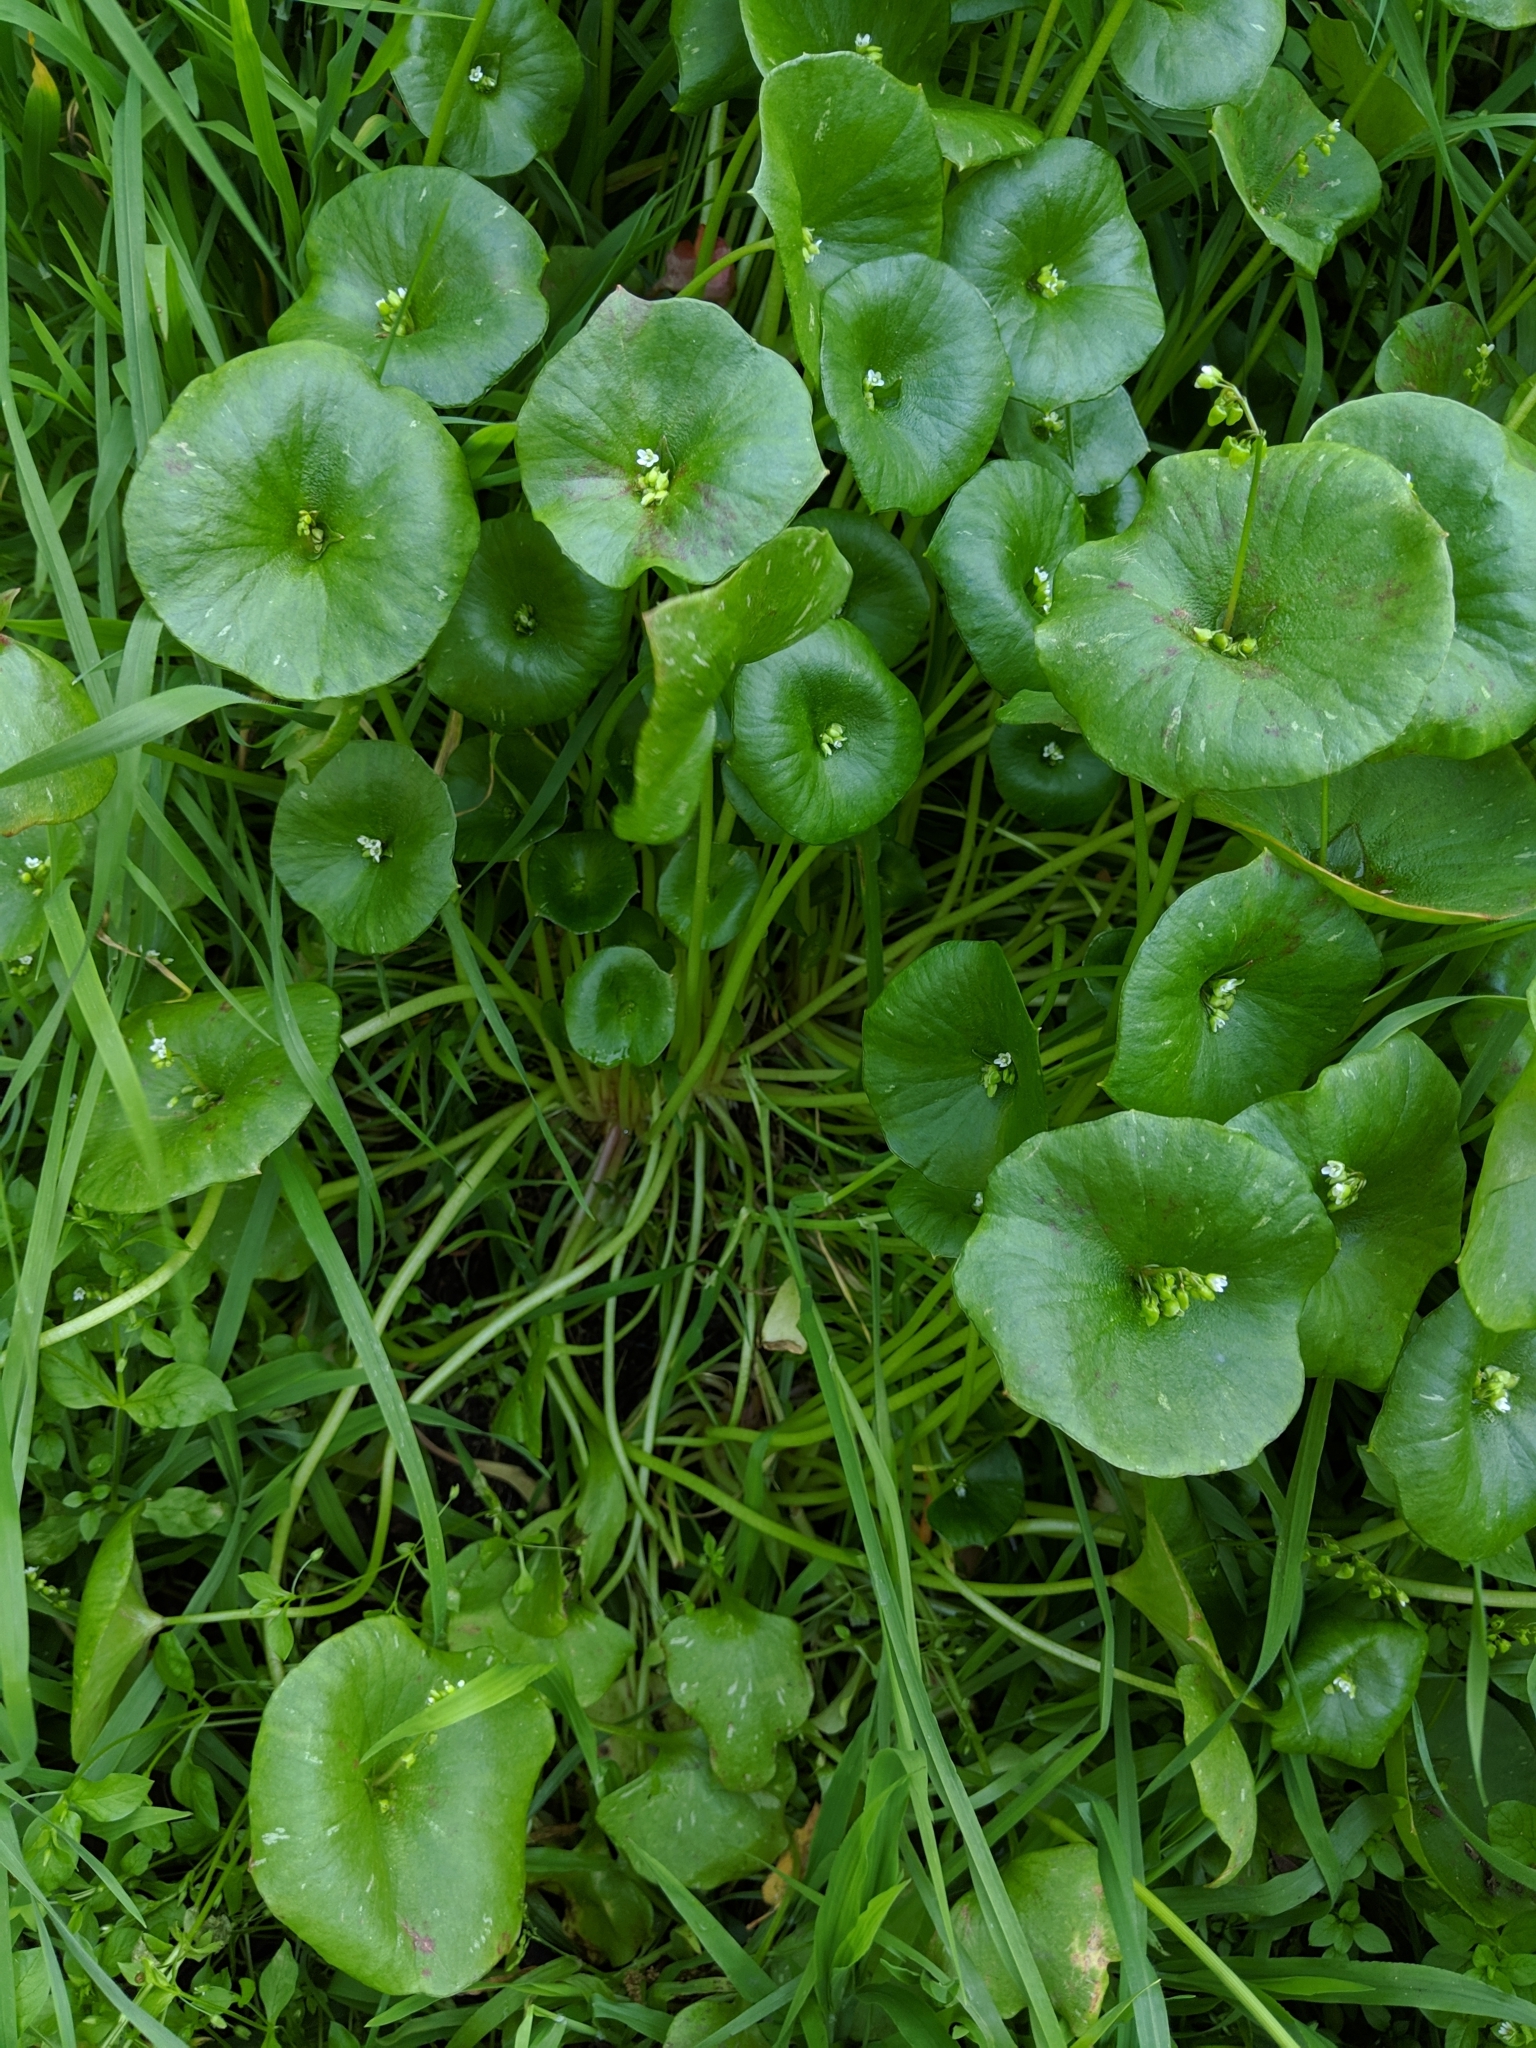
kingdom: Plantae
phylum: Tracheophyta
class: Magnoliopsida
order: Caryophyllales
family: Montiaceae
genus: Claytonia
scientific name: Claytonia perfoliata
